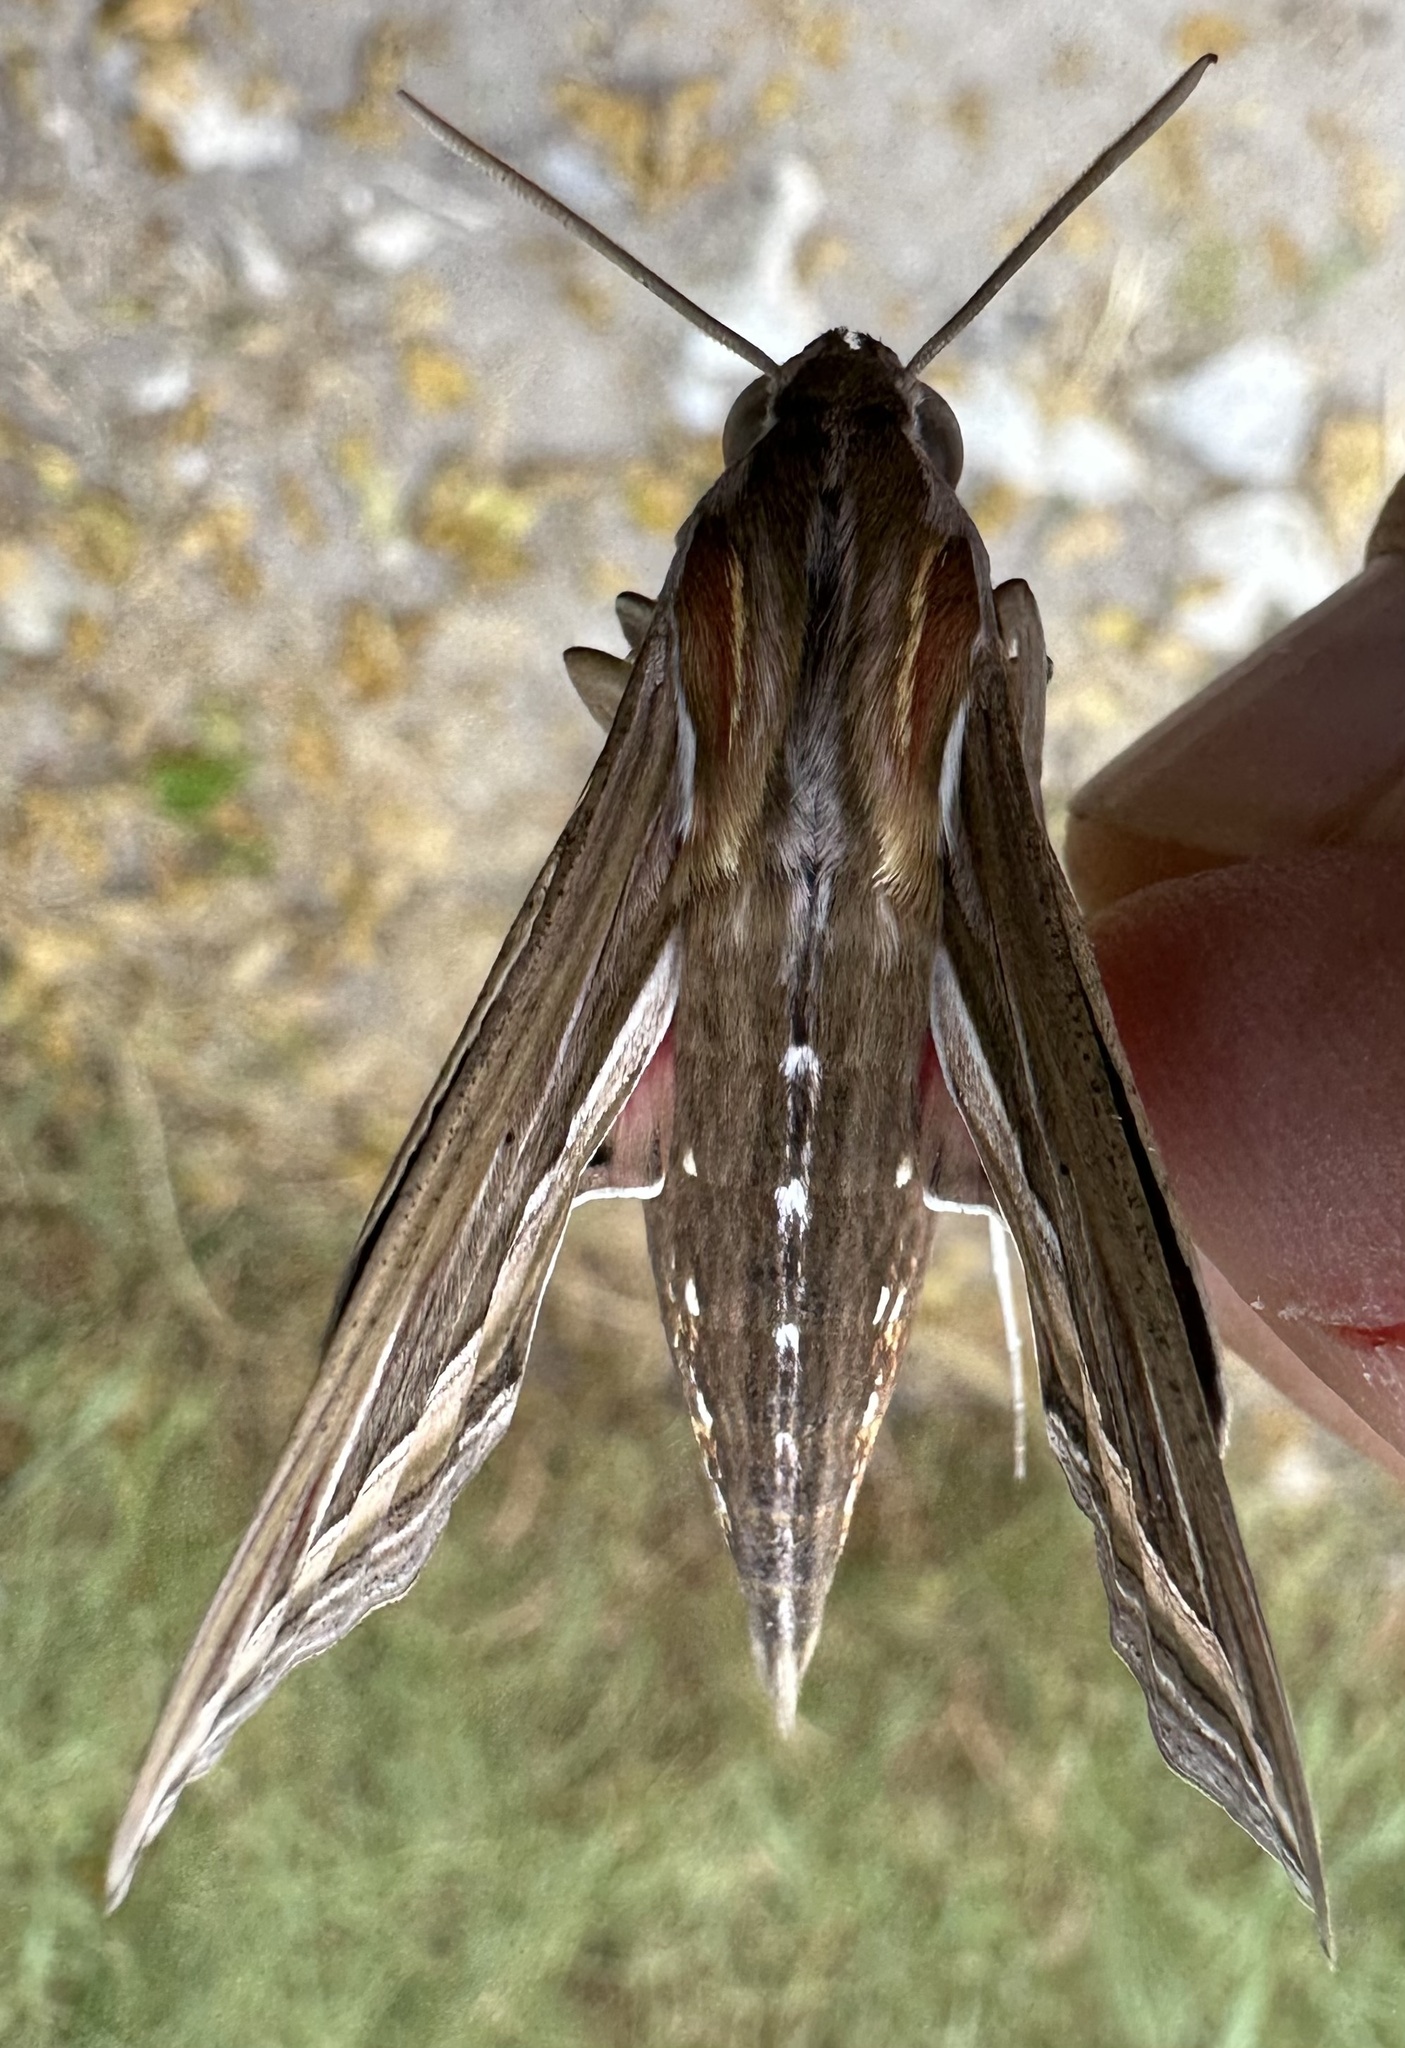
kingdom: Animalia
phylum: Arthropoda
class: Insecta
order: Lepidoptera
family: Sphingidae
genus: Hippotion
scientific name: Hippotion celerio
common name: Silver-striped hawk-moth
